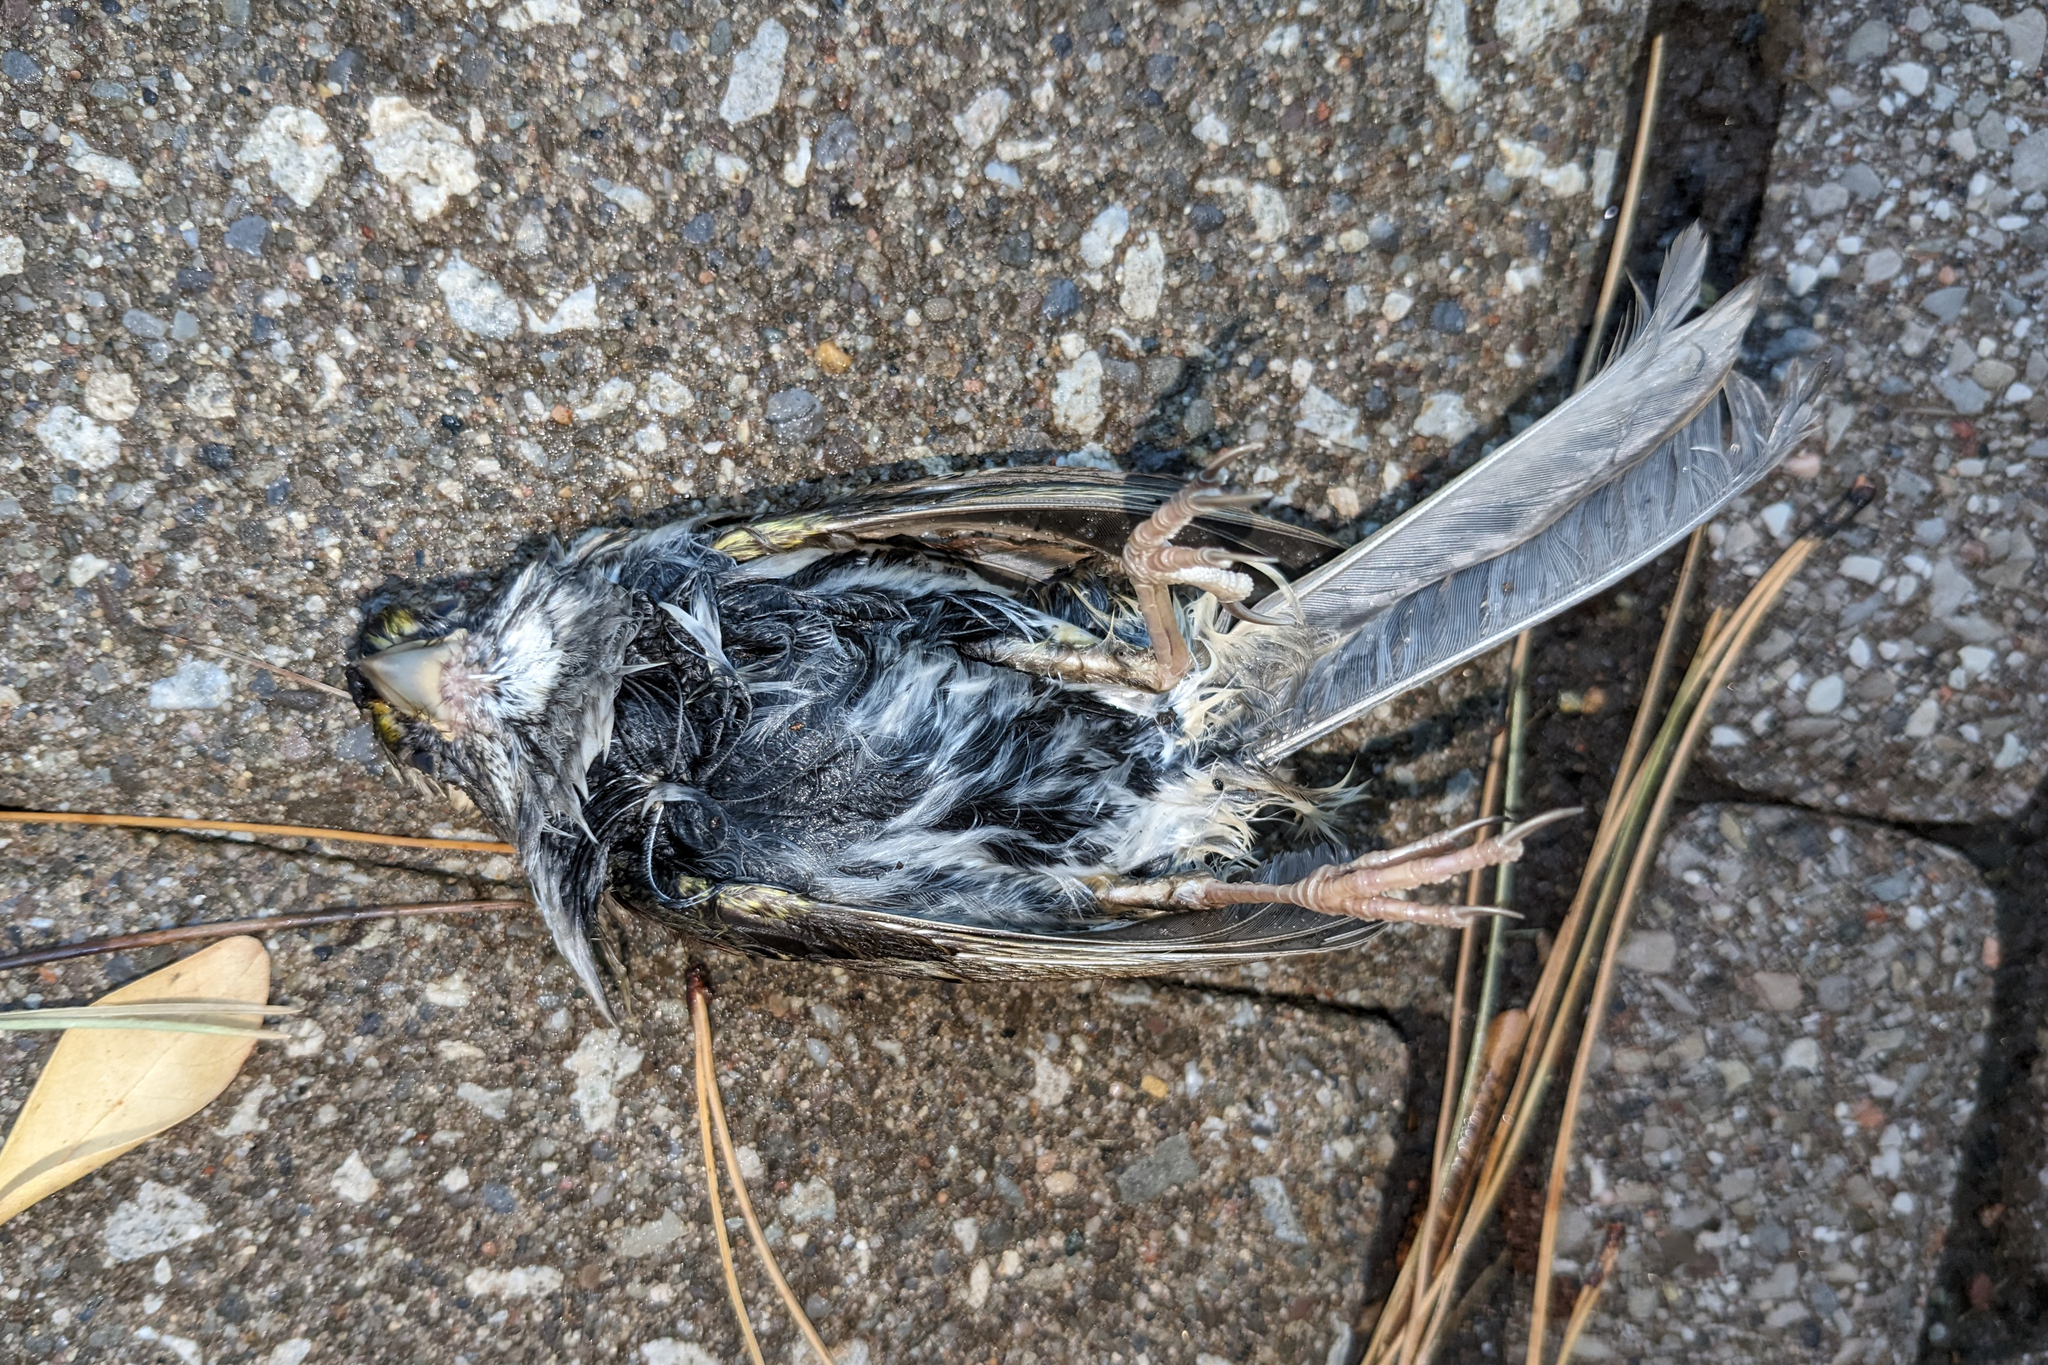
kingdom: Animalia
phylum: Chordata
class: Aves
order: Passeriformes
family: Passerellidae
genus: Zonotrichia
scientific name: Zonotrichia albicollis
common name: White-throated sparrow
